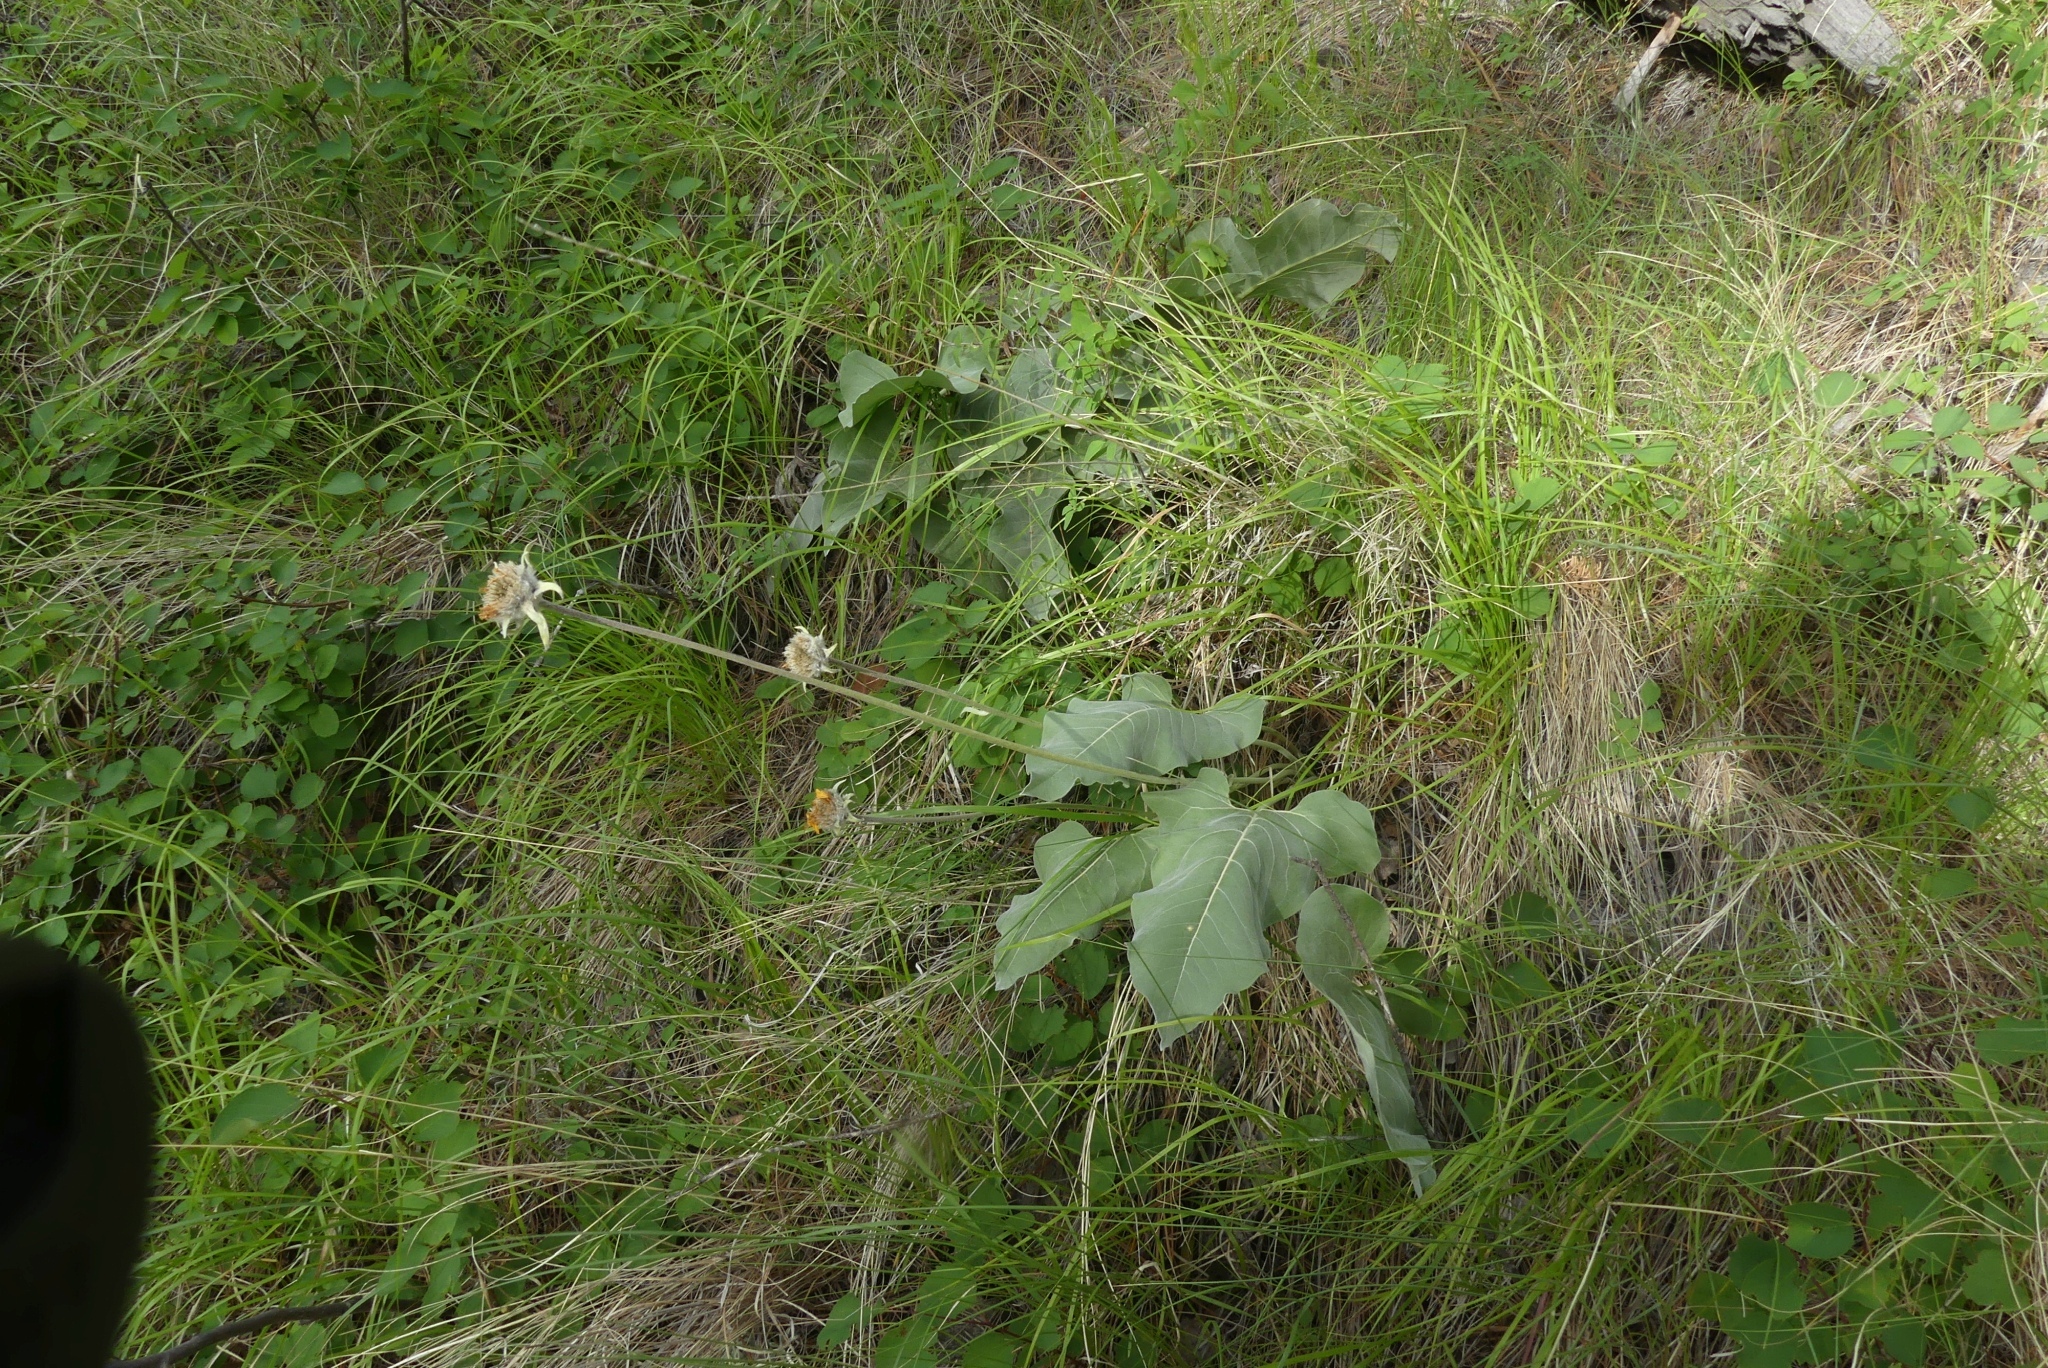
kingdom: Plantae
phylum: Tracheophyta
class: Magnoliopsida
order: Asterales
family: Asteraceae
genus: Wyethia
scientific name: Wyethia sagittata
